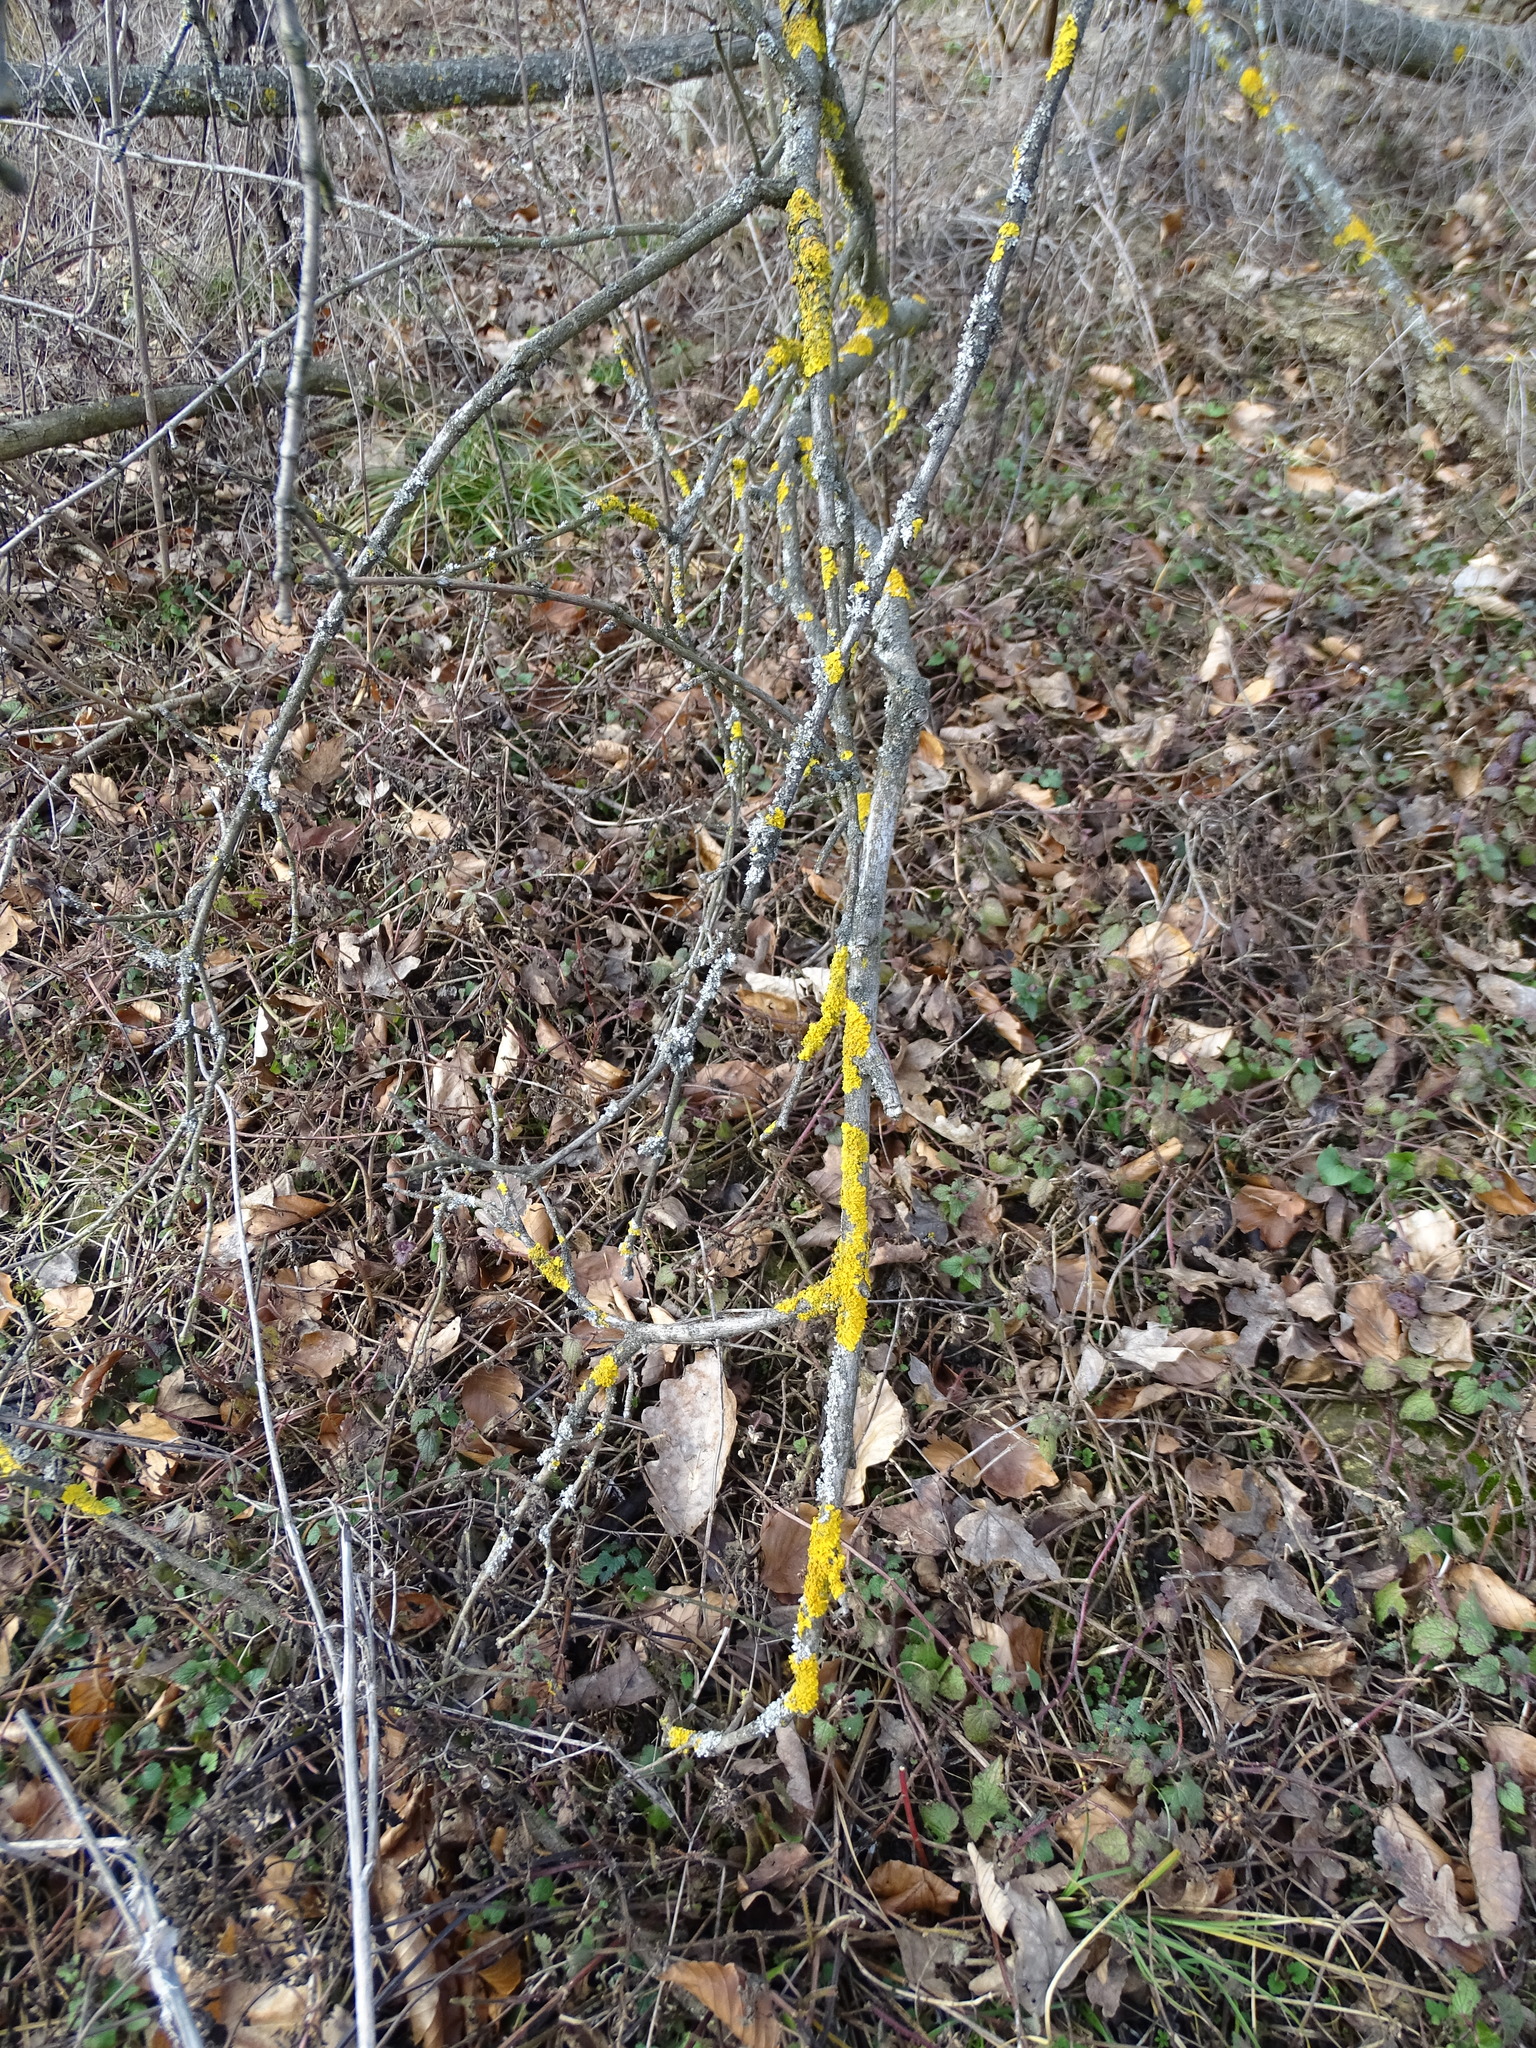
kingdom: Fungi
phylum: Ascomycota
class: Lecanoromycetes
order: Teloschistales
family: Teloschistaceae
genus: Xanthoria
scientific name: Xanthoria parietina
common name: Common orange lichen
